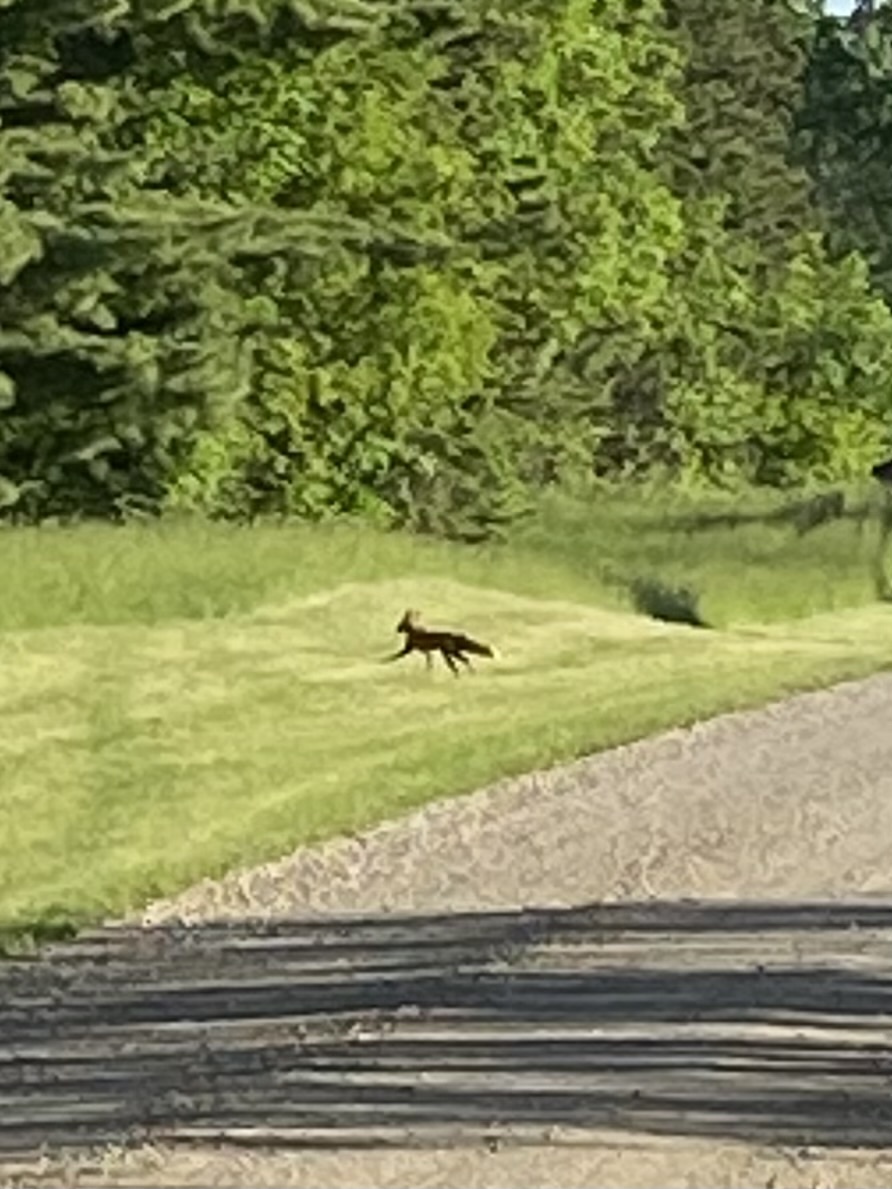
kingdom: Animalia
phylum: Chordata
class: Mammalia
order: Carnivora
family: Canidae
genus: Vulpes
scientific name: Vulpes vulpes
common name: Red fox
